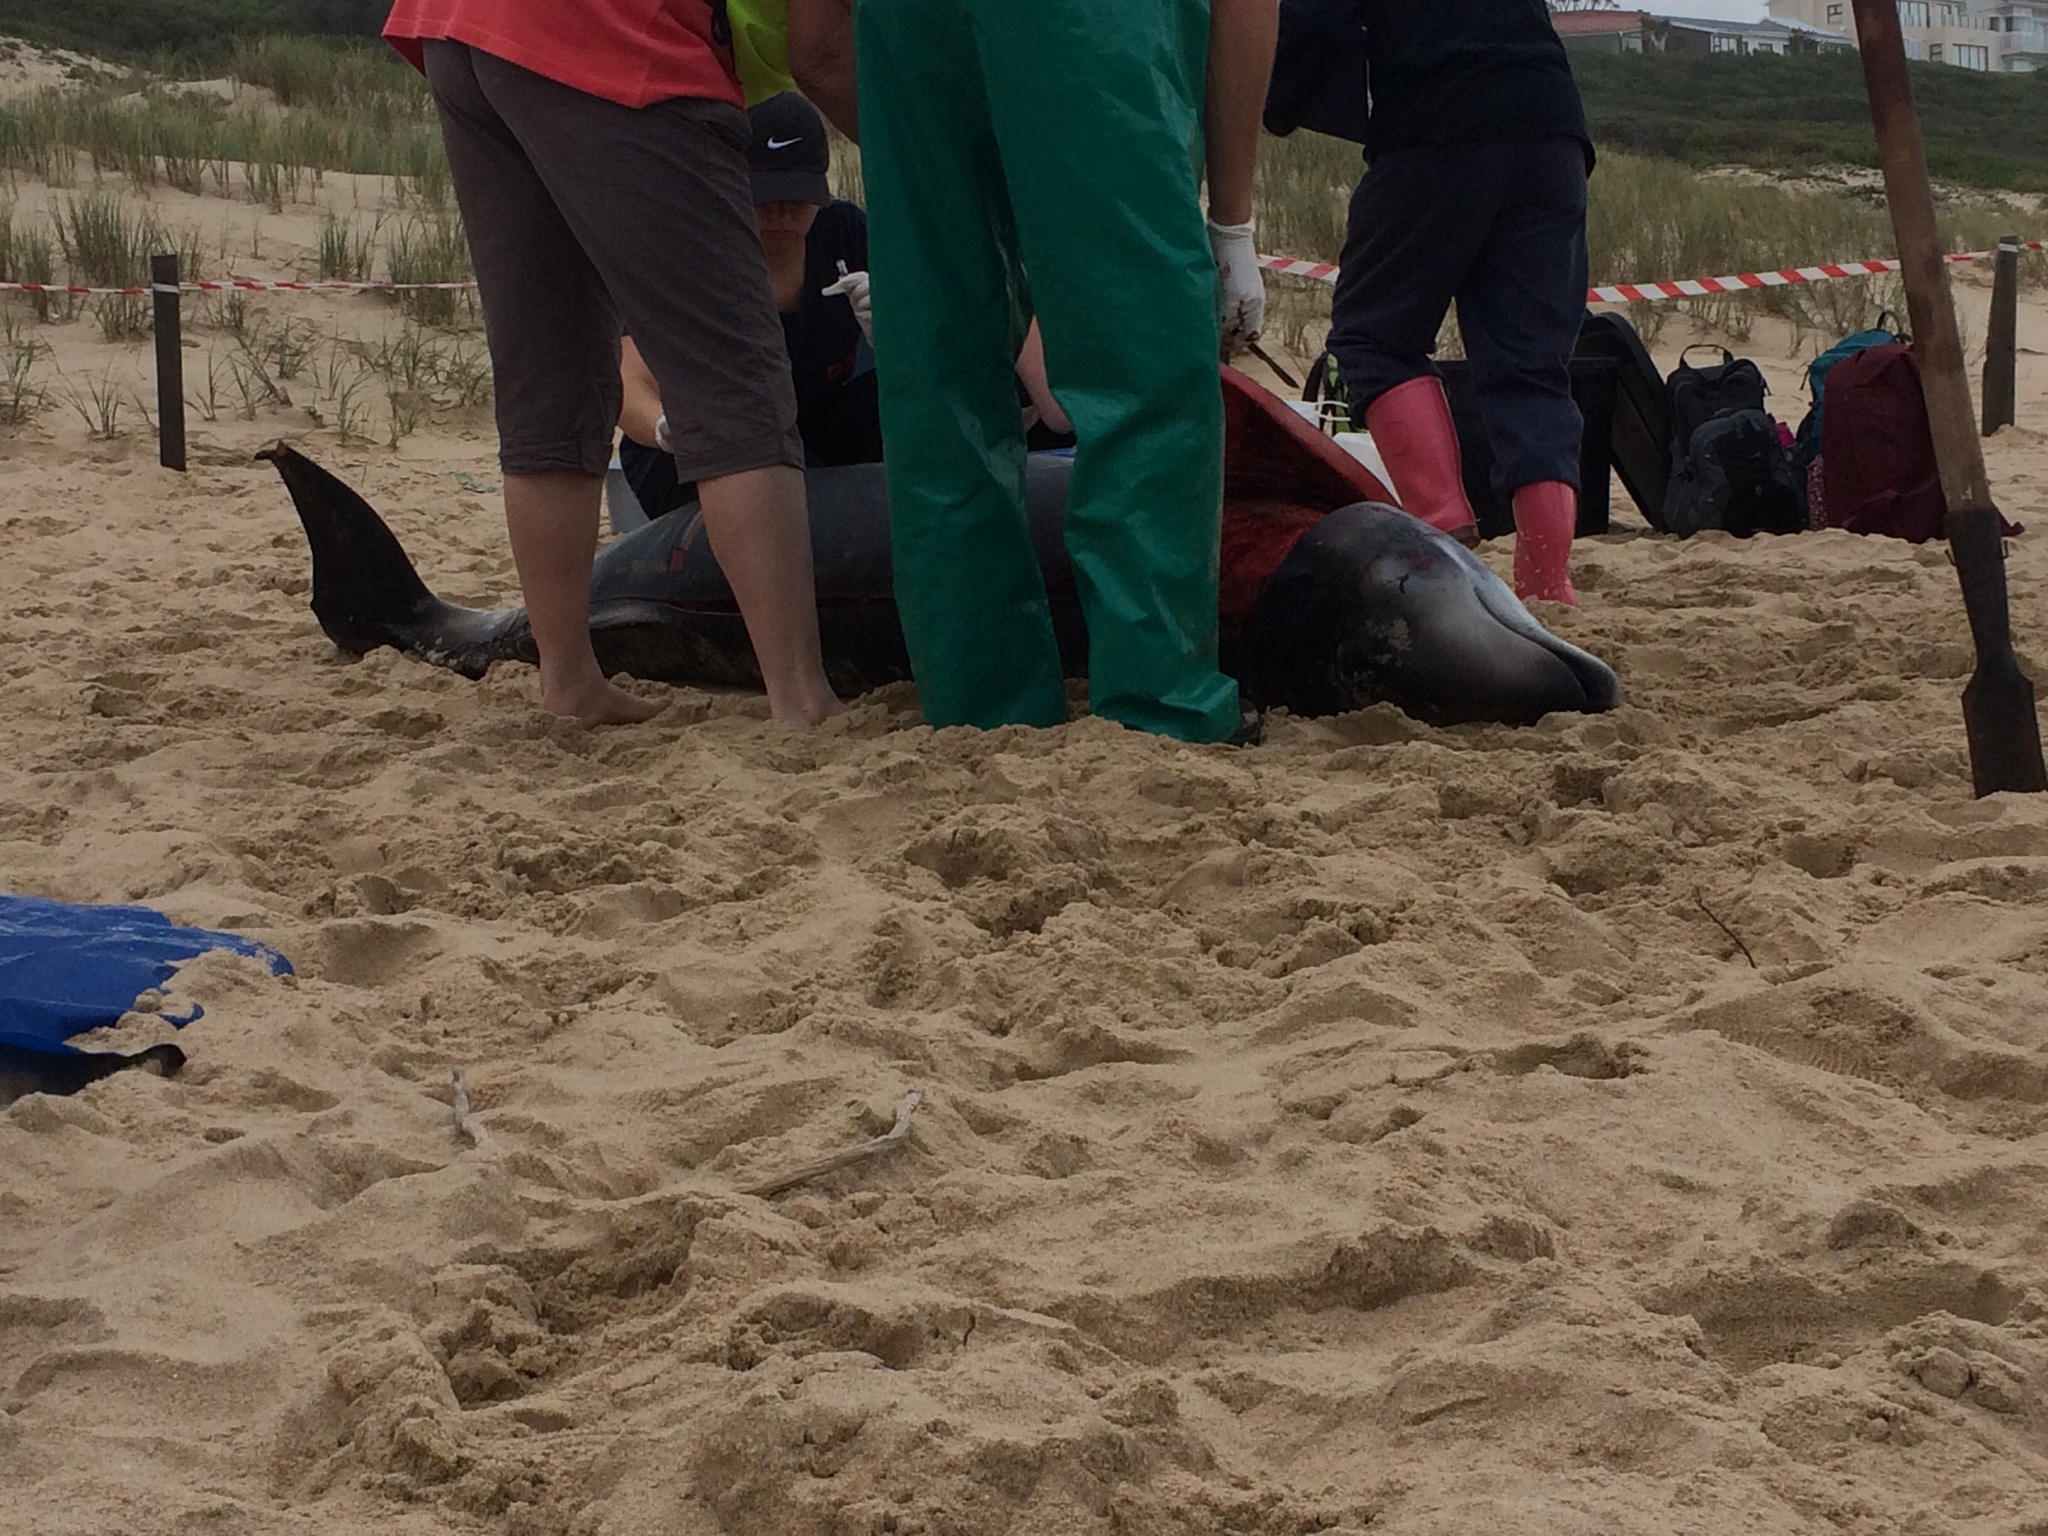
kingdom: Animalia
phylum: Chordata
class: Mammalia
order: Cetacea
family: Hyperoodontidae
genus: Mesoplodon
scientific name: Mesoplodon eueu
